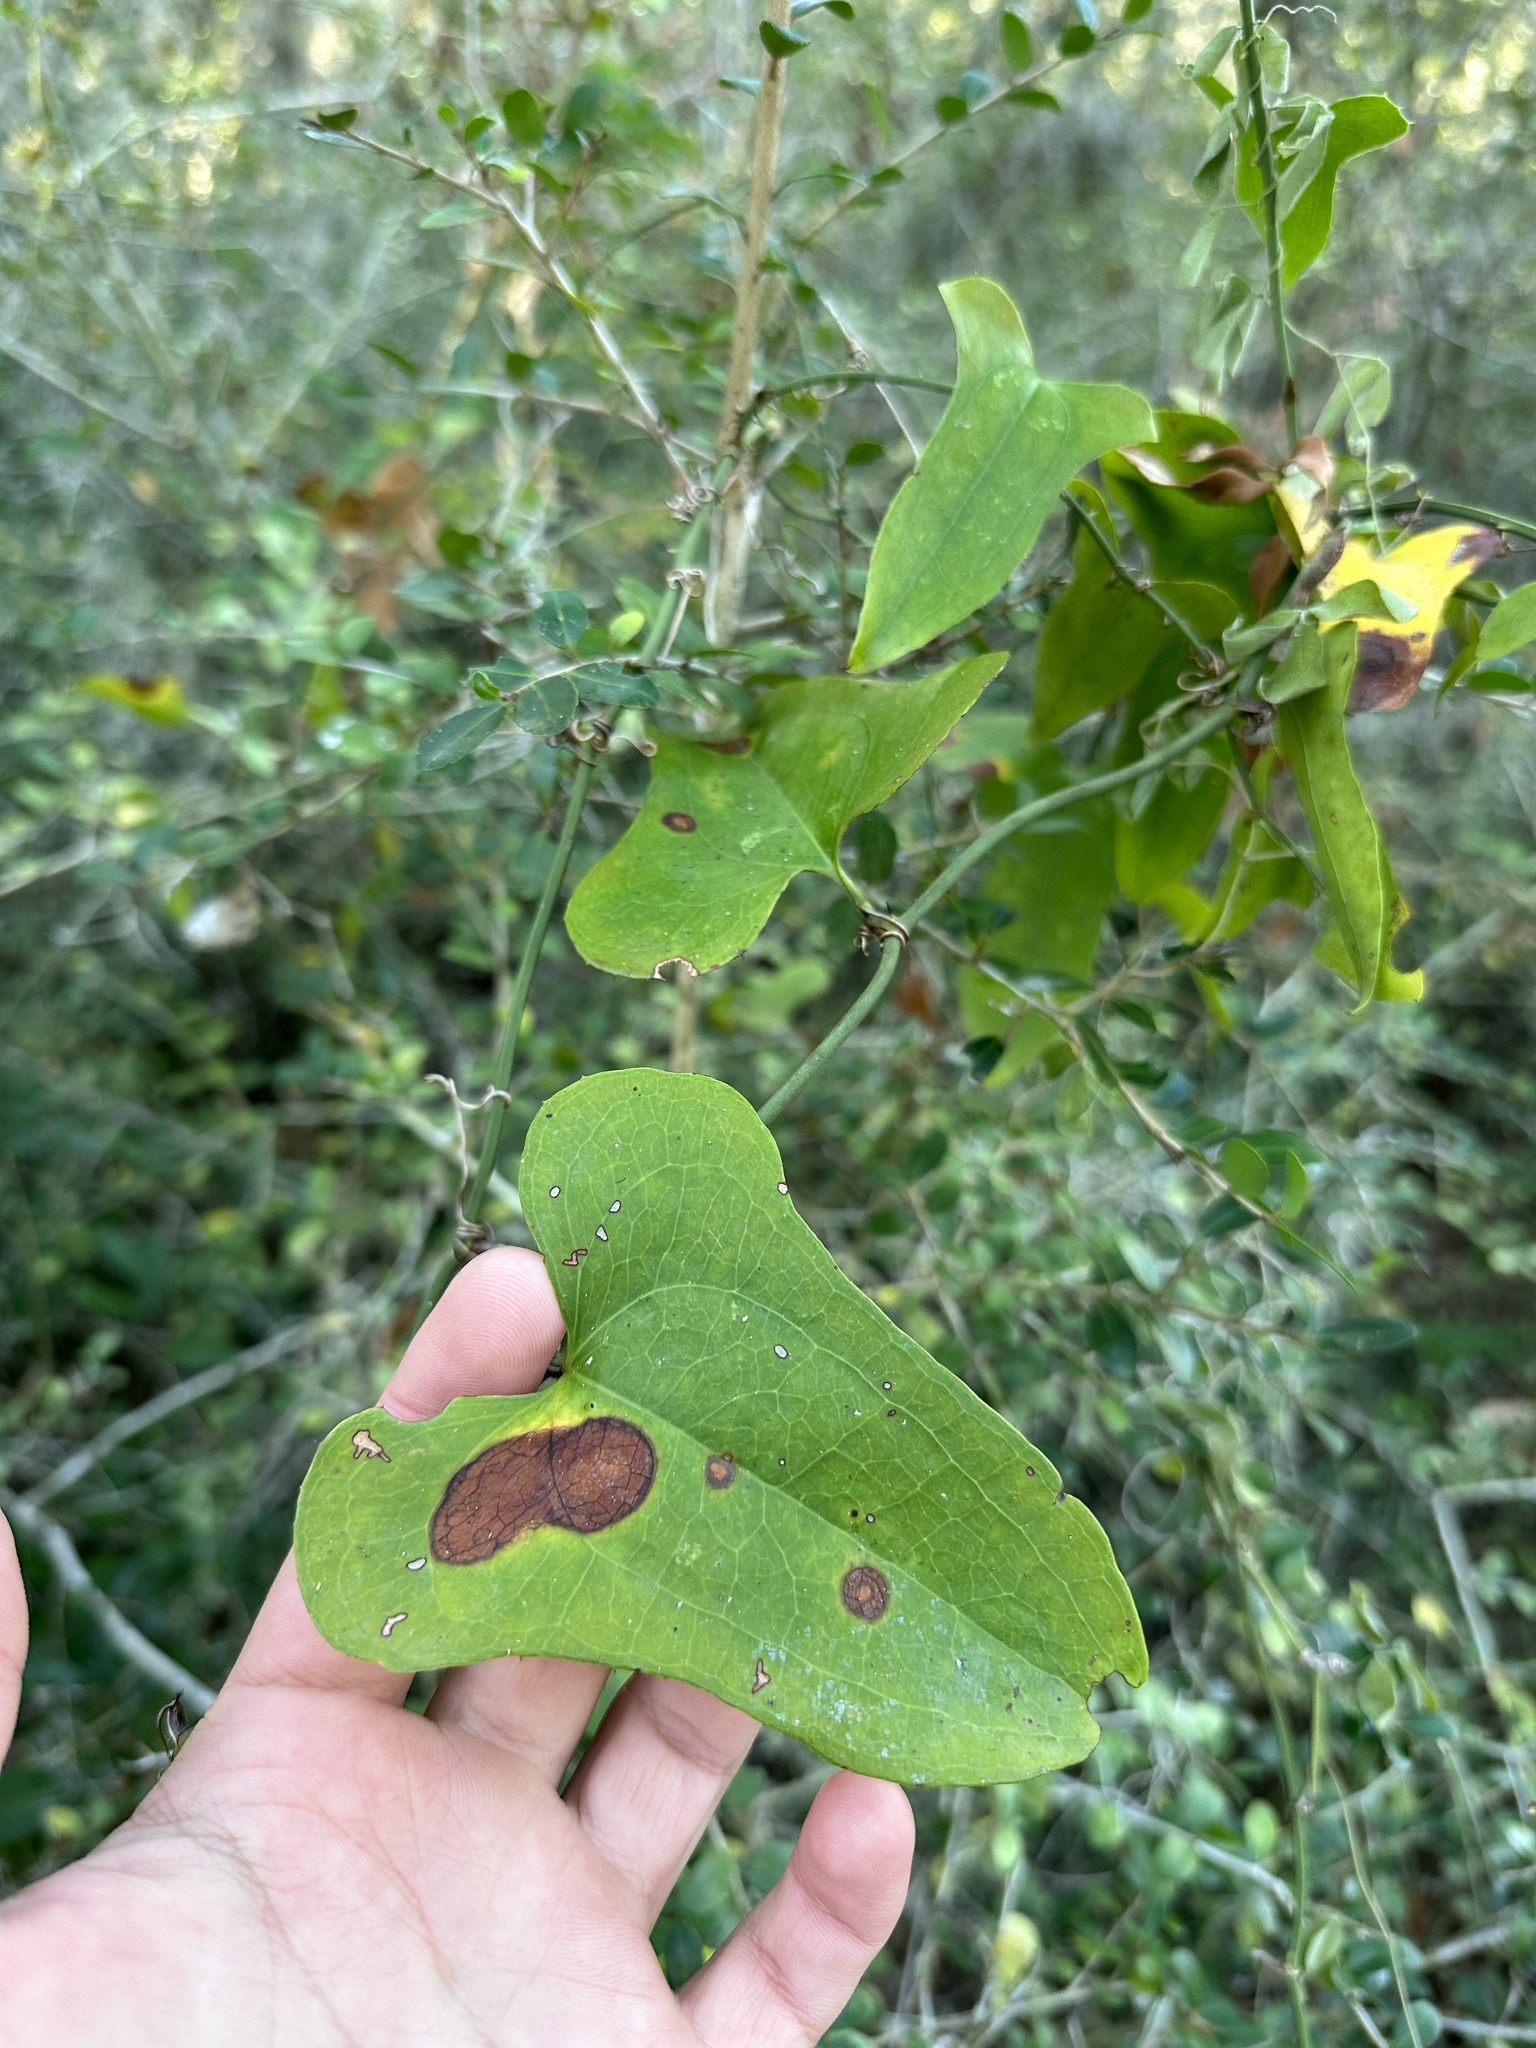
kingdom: Plantae
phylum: Tracheophyta
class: Liliopsida
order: Liliales
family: Smilacaceae
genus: Smilax
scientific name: Smilax bona-nox
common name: Catbrier
